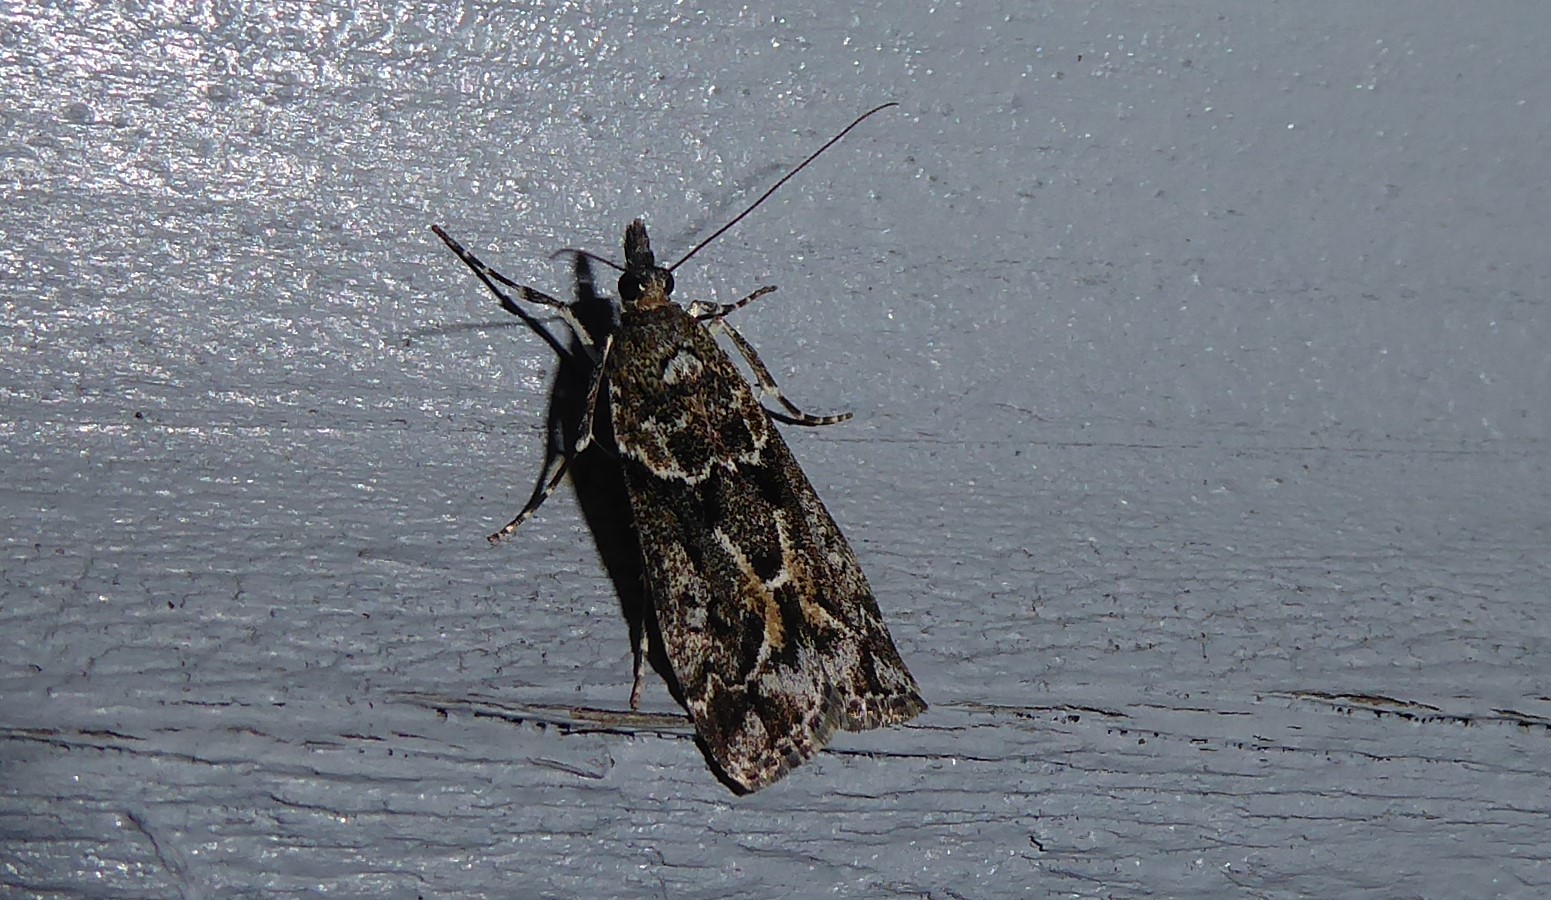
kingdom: Animalia
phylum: Arthropoda
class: Insecta
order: Lepidoptera
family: Crambidae
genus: Eudonia
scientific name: Eudonia submarginalis
